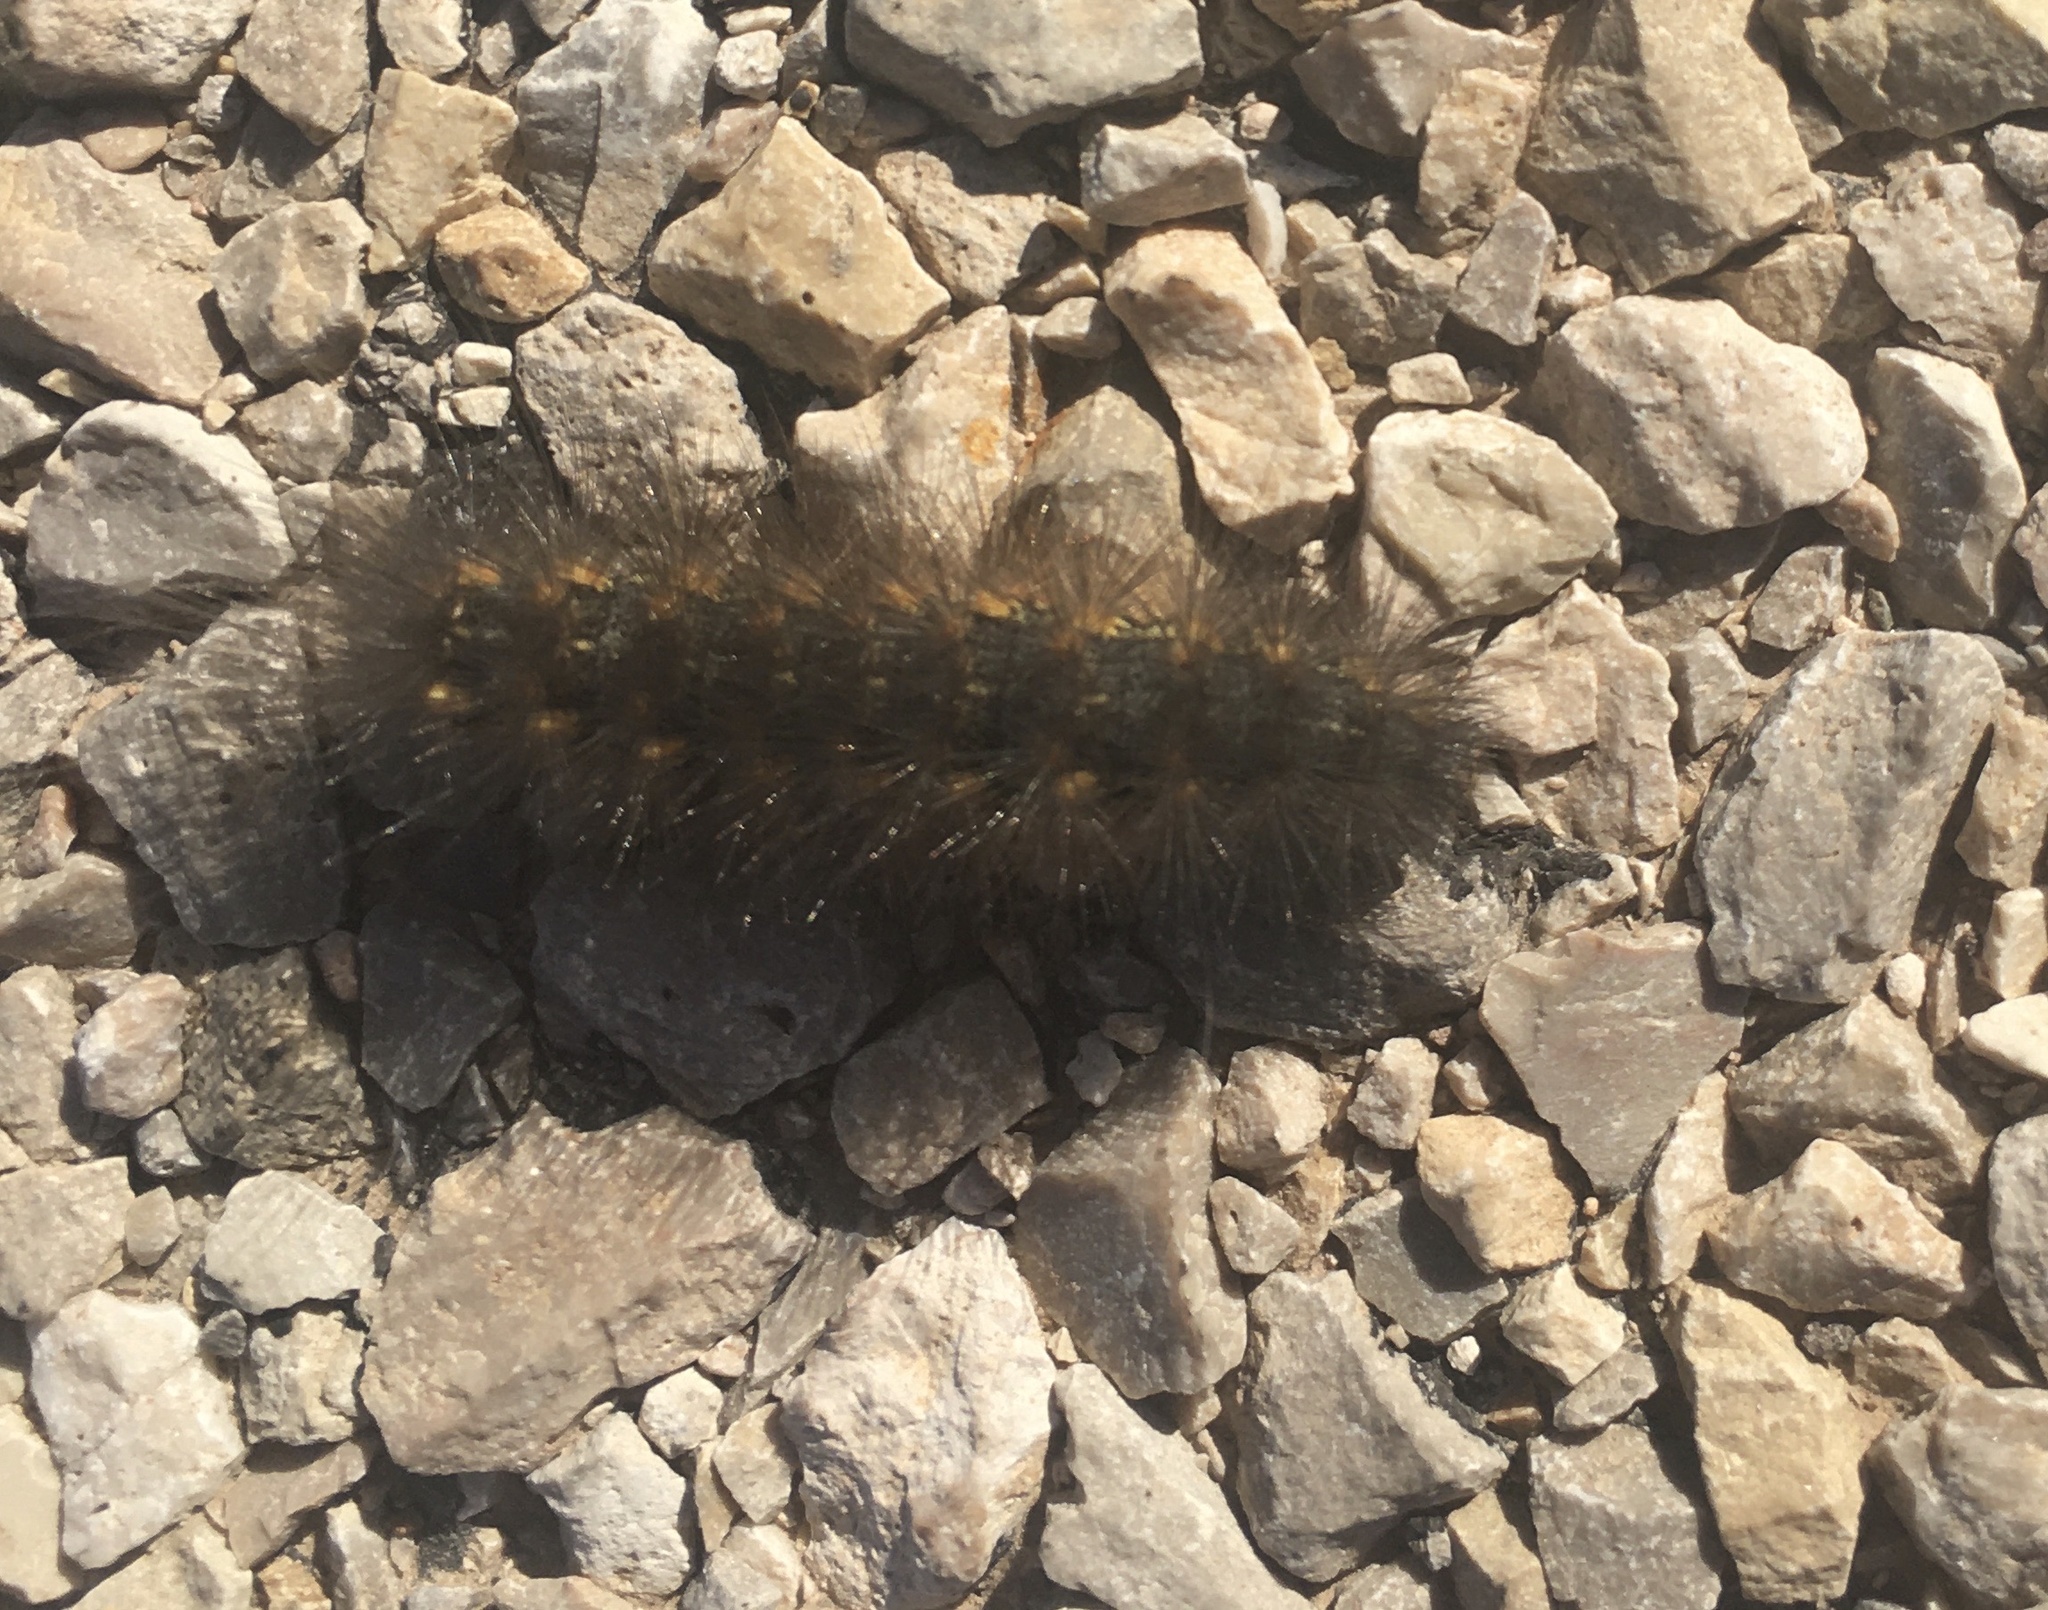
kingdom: Animalia
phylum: Arthropoda
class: Insecta
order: Lepidoptera
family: Erebidae
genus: Estigmene
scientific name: Estigmene
